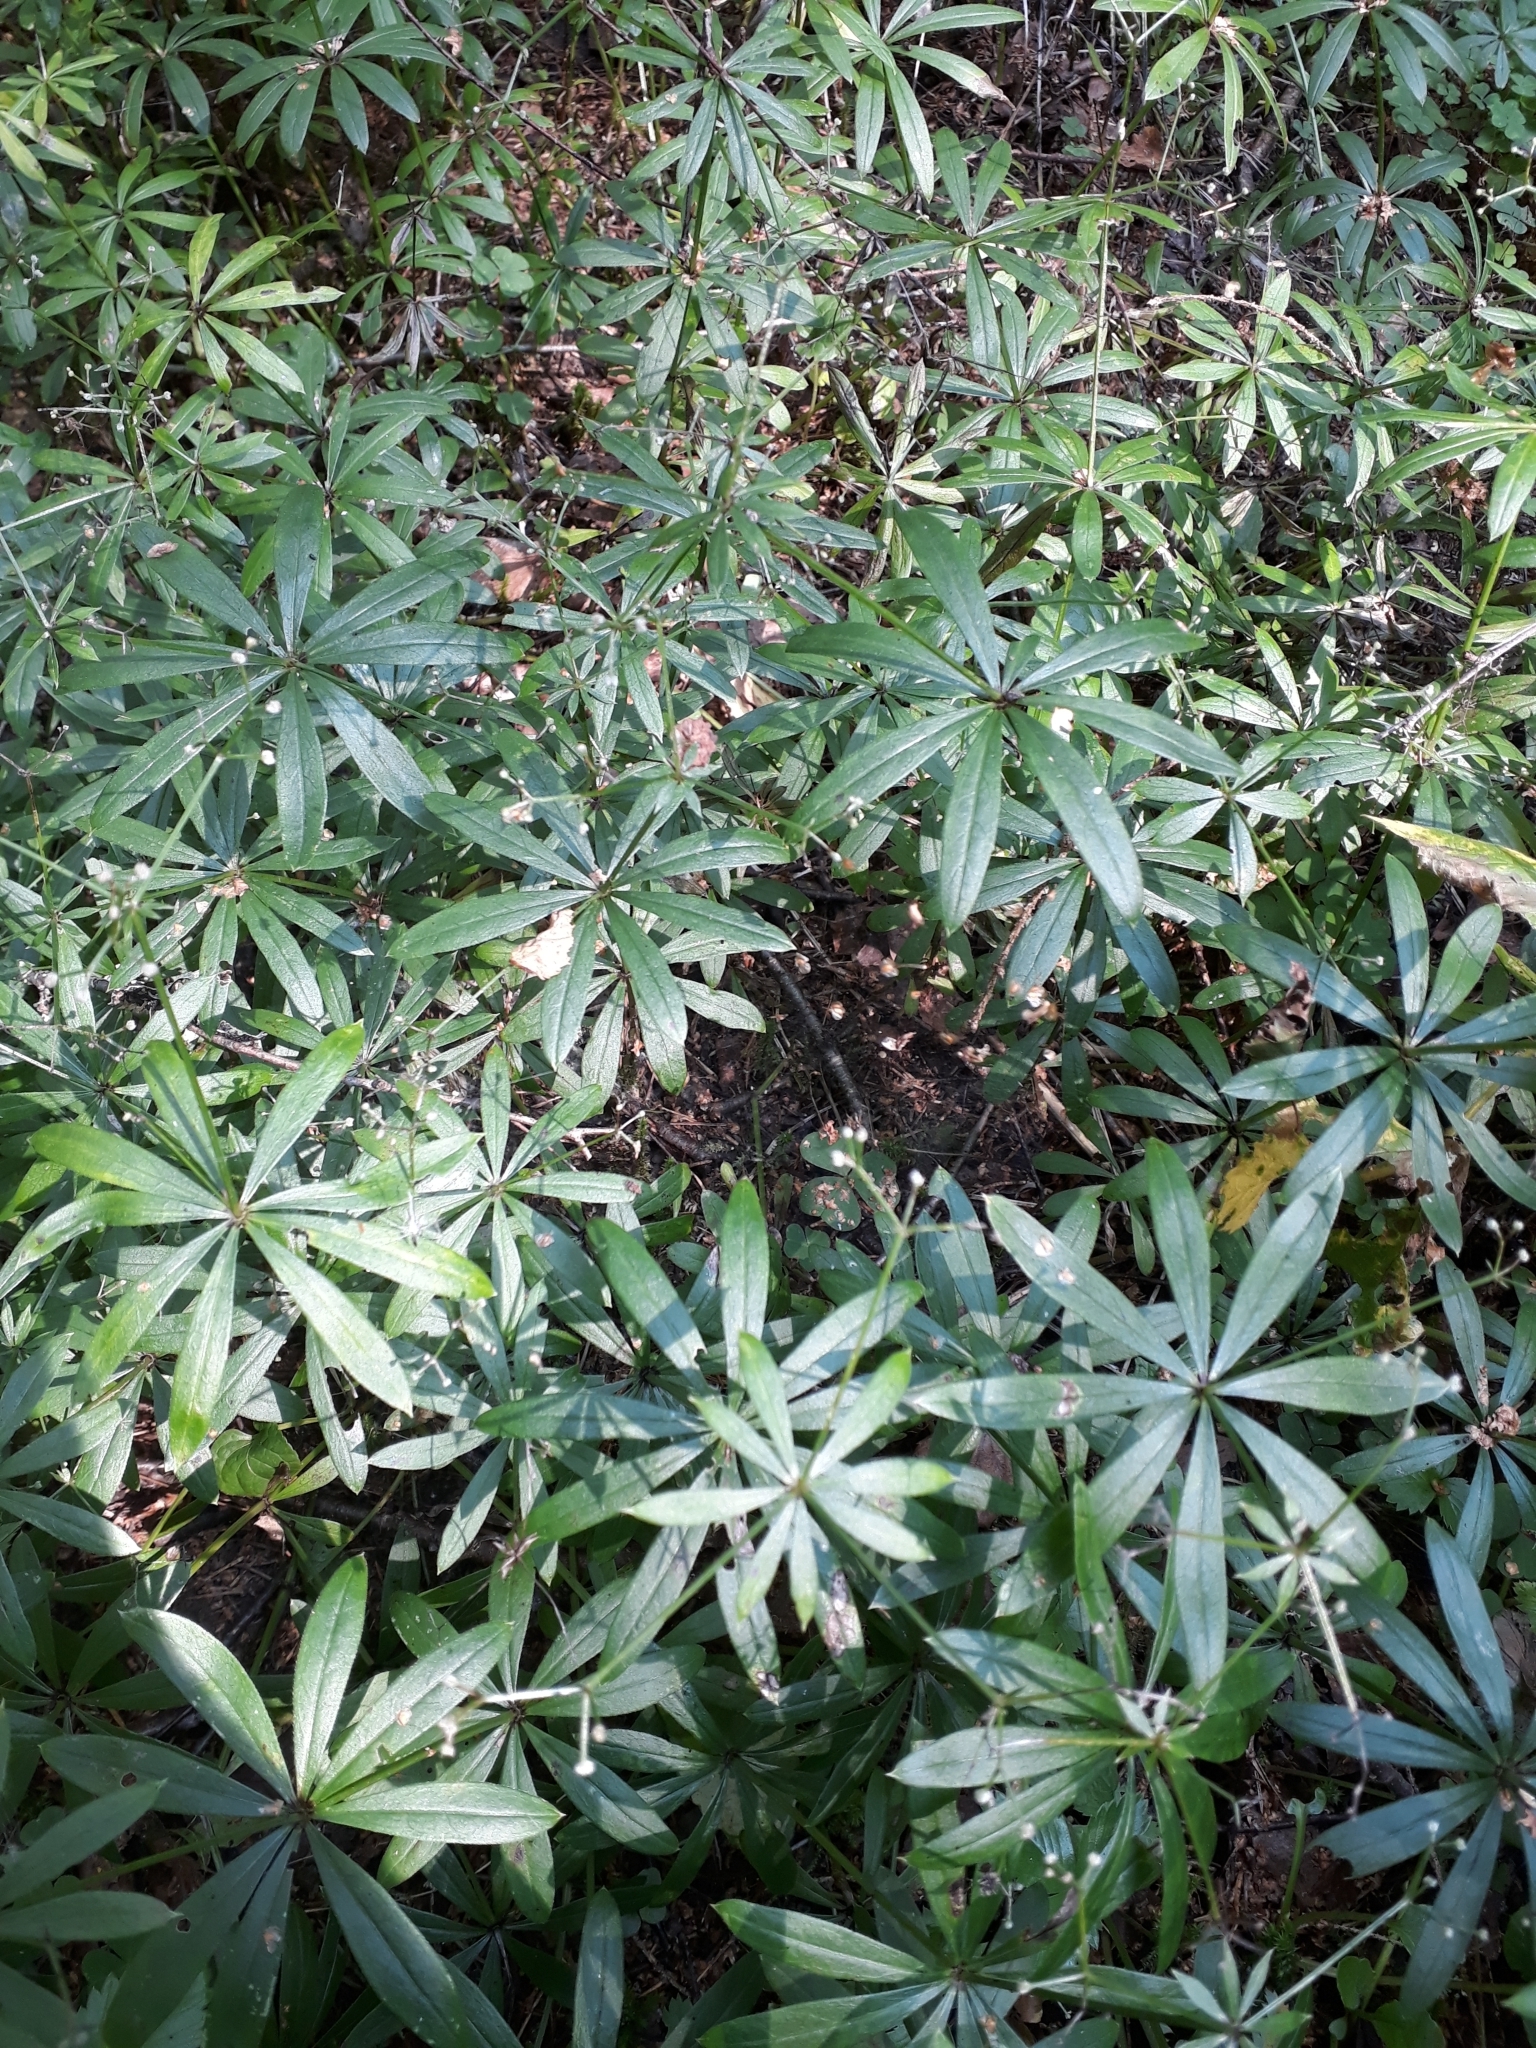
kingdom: Plantae
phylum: Tracheophyta
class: Magnoliopsida
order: Gentianales
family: Rubiaceae
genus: Galium
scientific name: Galium intermedium
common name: Bedstraw
